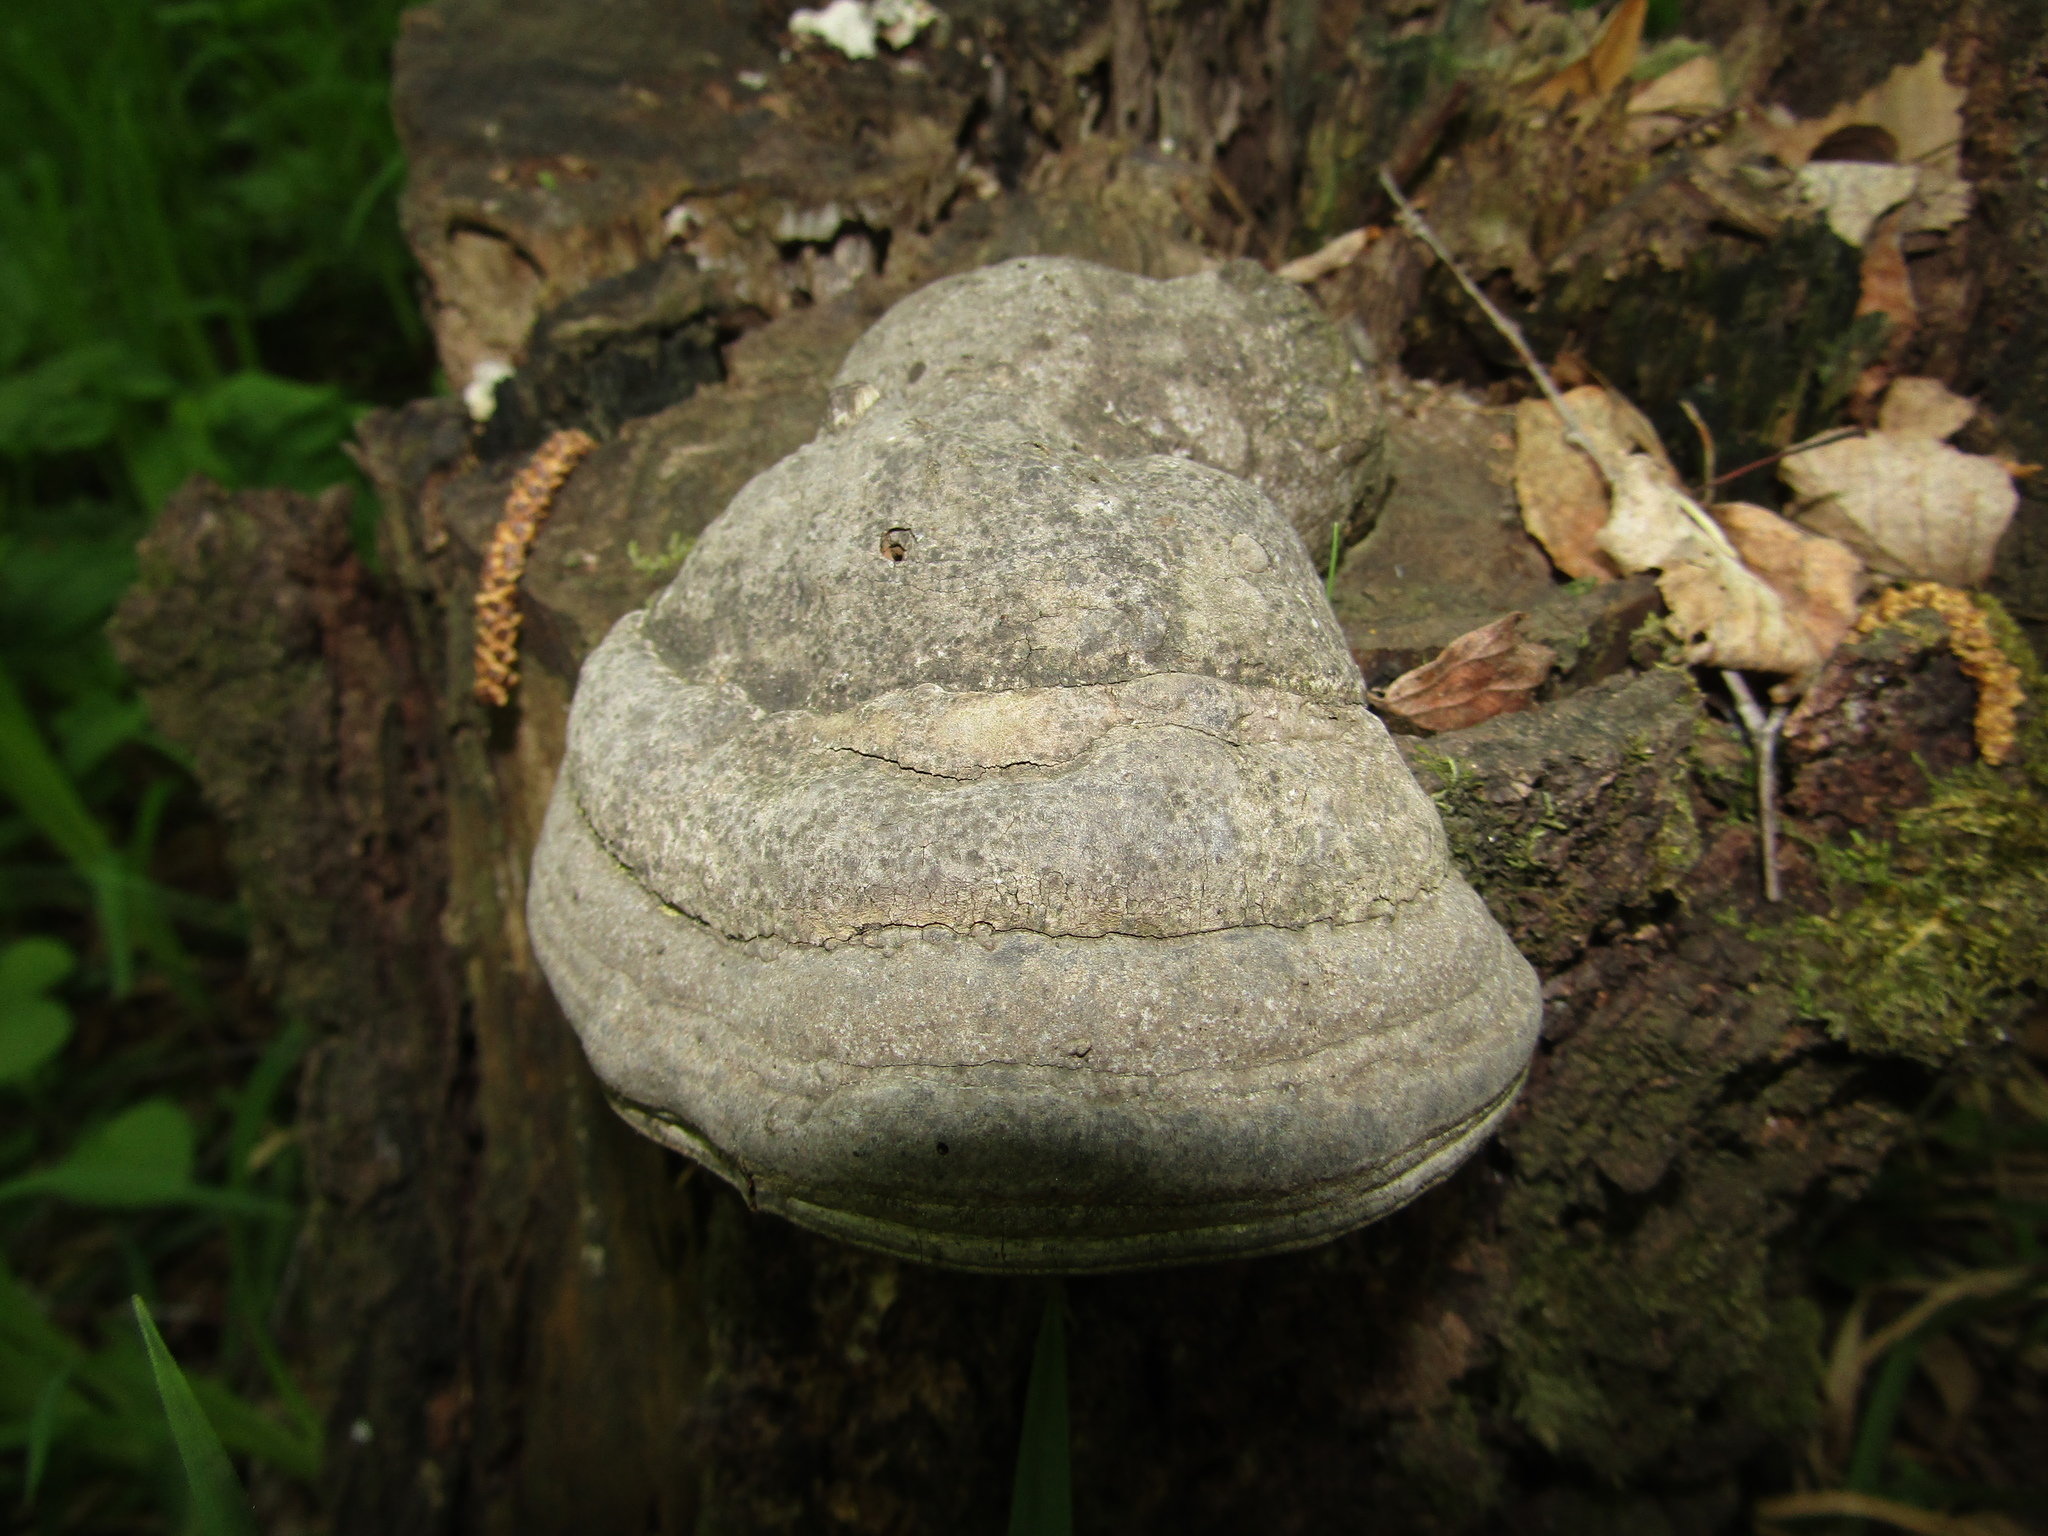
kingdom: Fungi
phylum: Basidiomycota
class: Agaricomycetes
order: Polyporales
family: Polyporaceae
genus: Fomes
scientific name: Fomes fomentarius
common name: Hoof fungus
